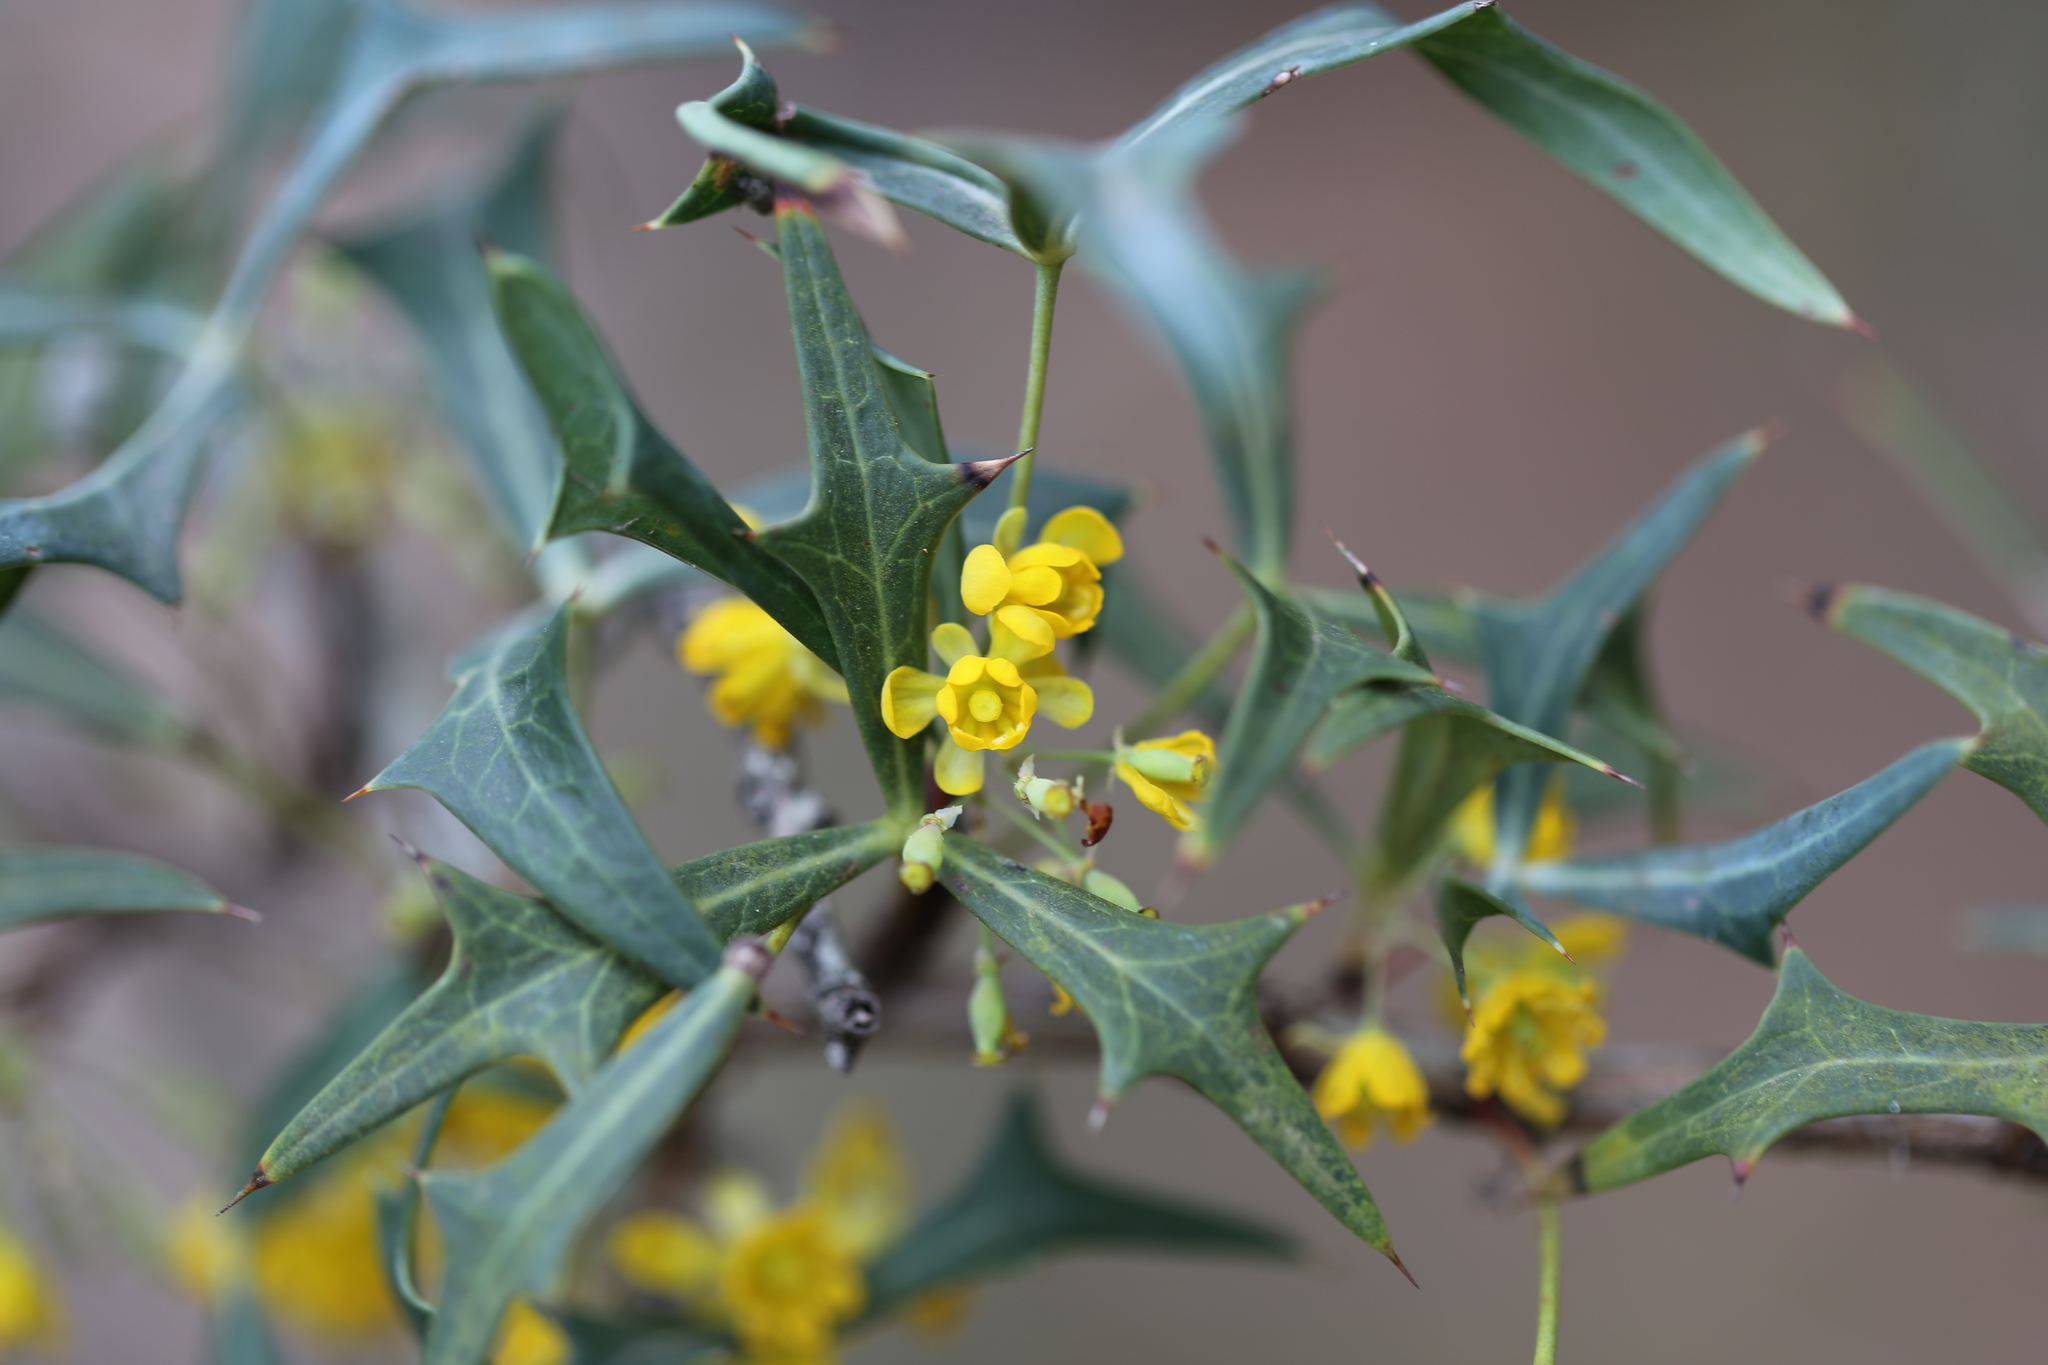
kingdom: Plantae
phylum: Tracheophyta
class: Magnoliopsida
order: Ranunculales
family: Berberidaceae
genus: Alloberberis
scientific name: Alloberberis trifoliolata
